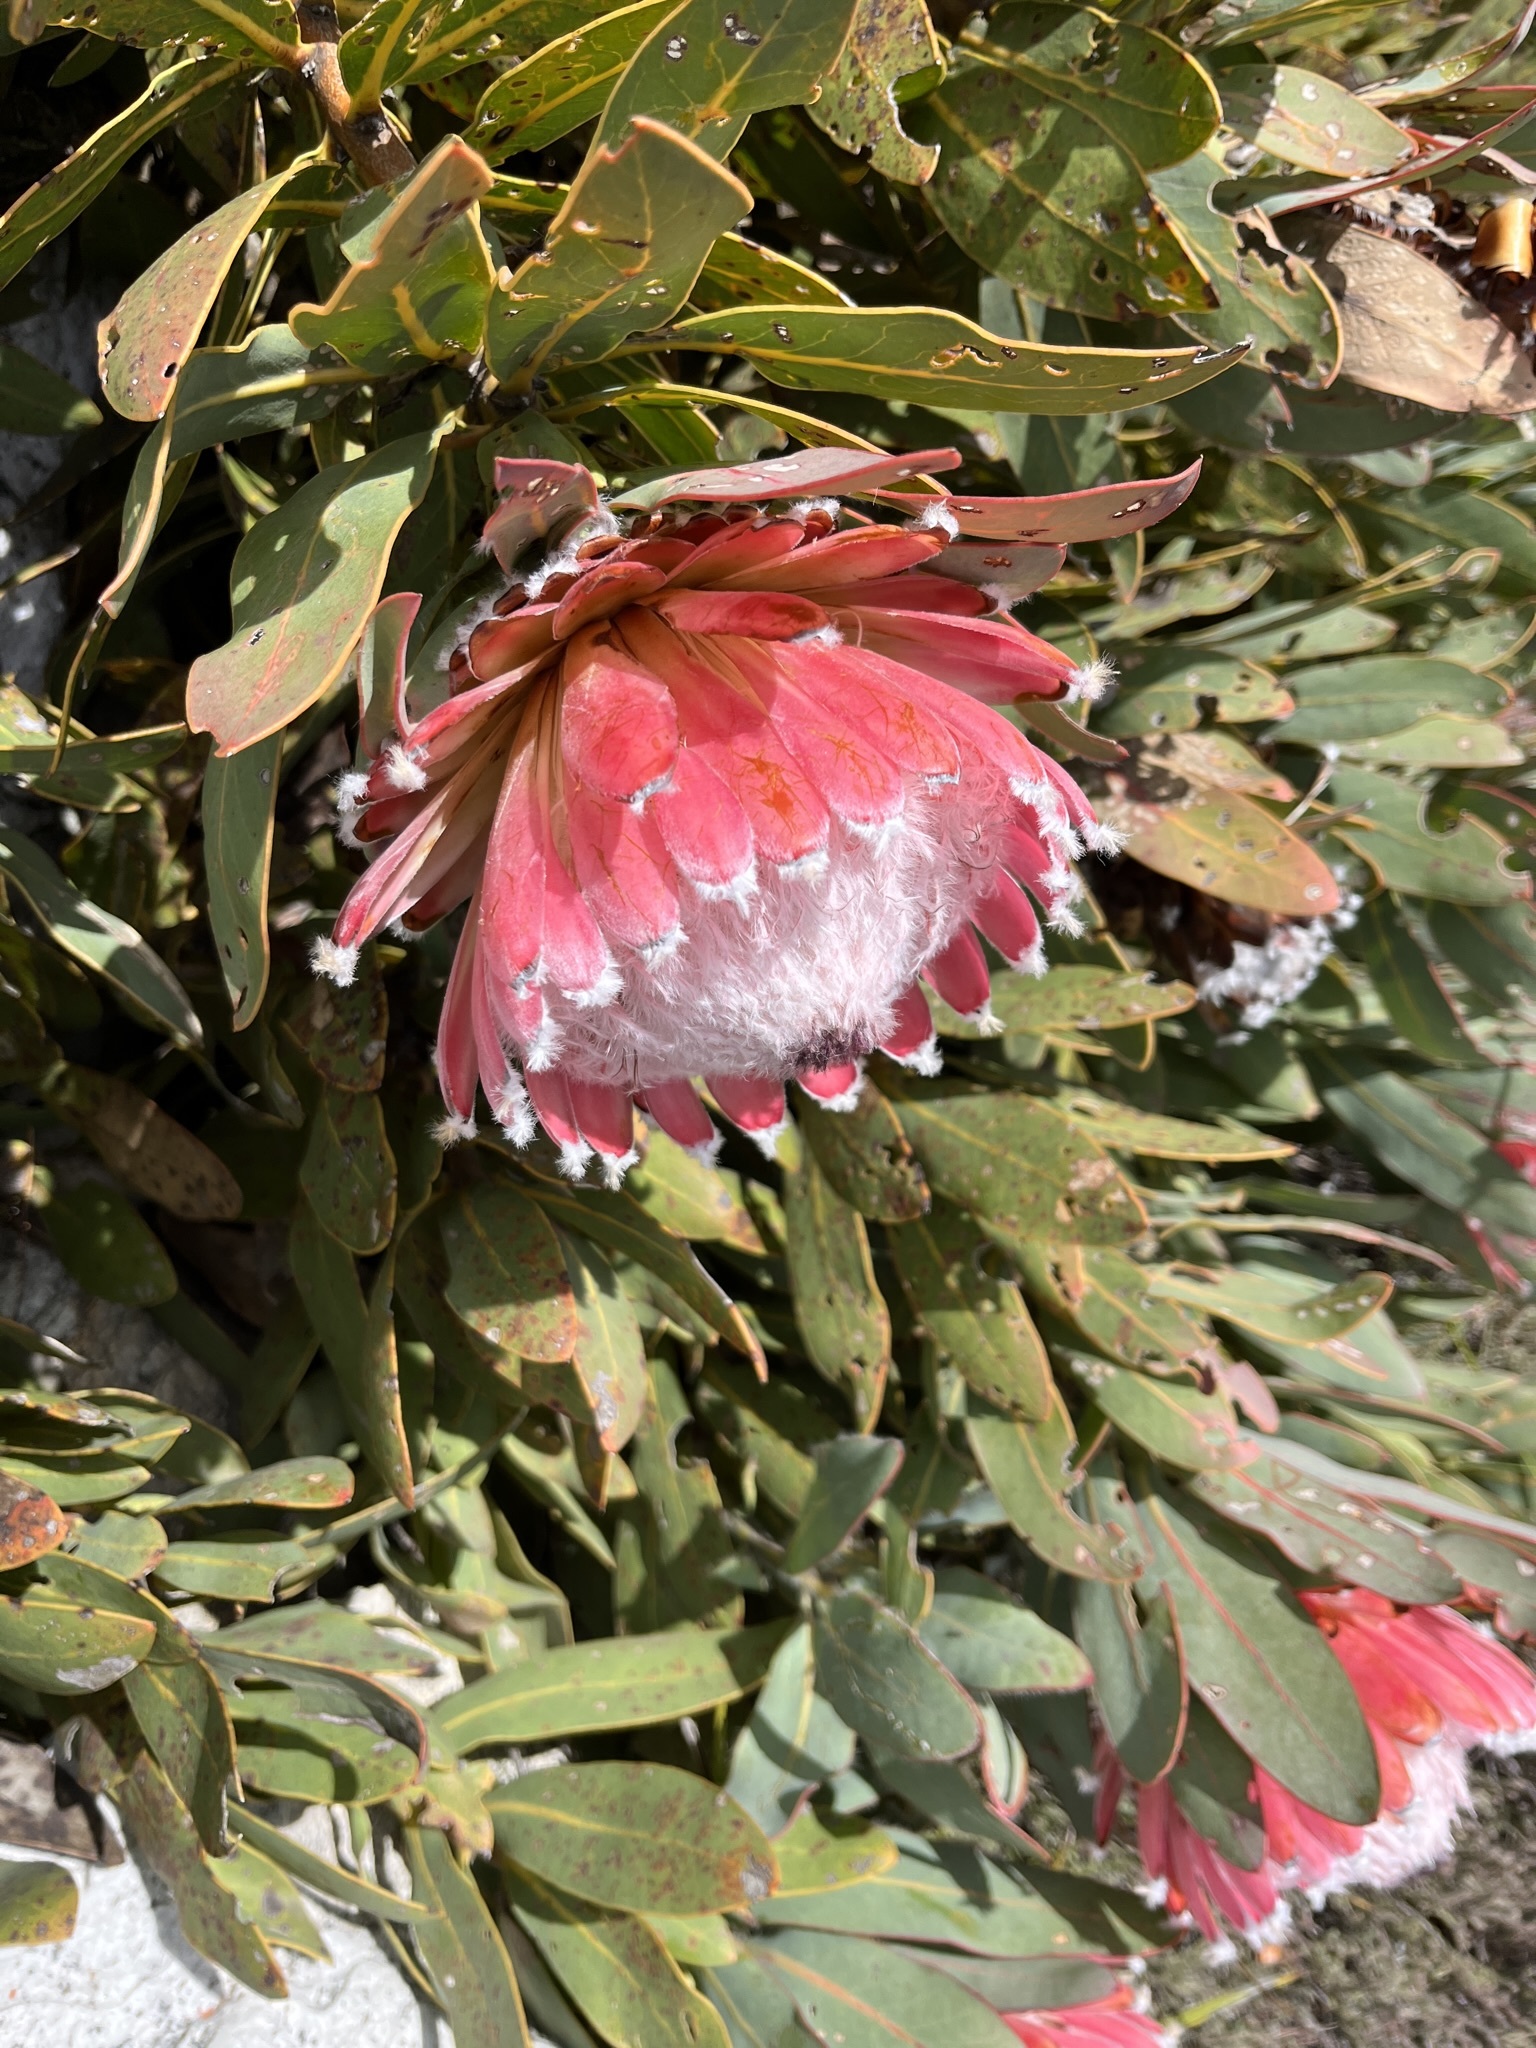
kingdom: Plantae
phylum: Tracheophyta
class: Magnoliopsida
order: Proteales
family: Proteaceae
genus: Protea
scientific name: Protea magnifica
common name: Bearded sugarbush
